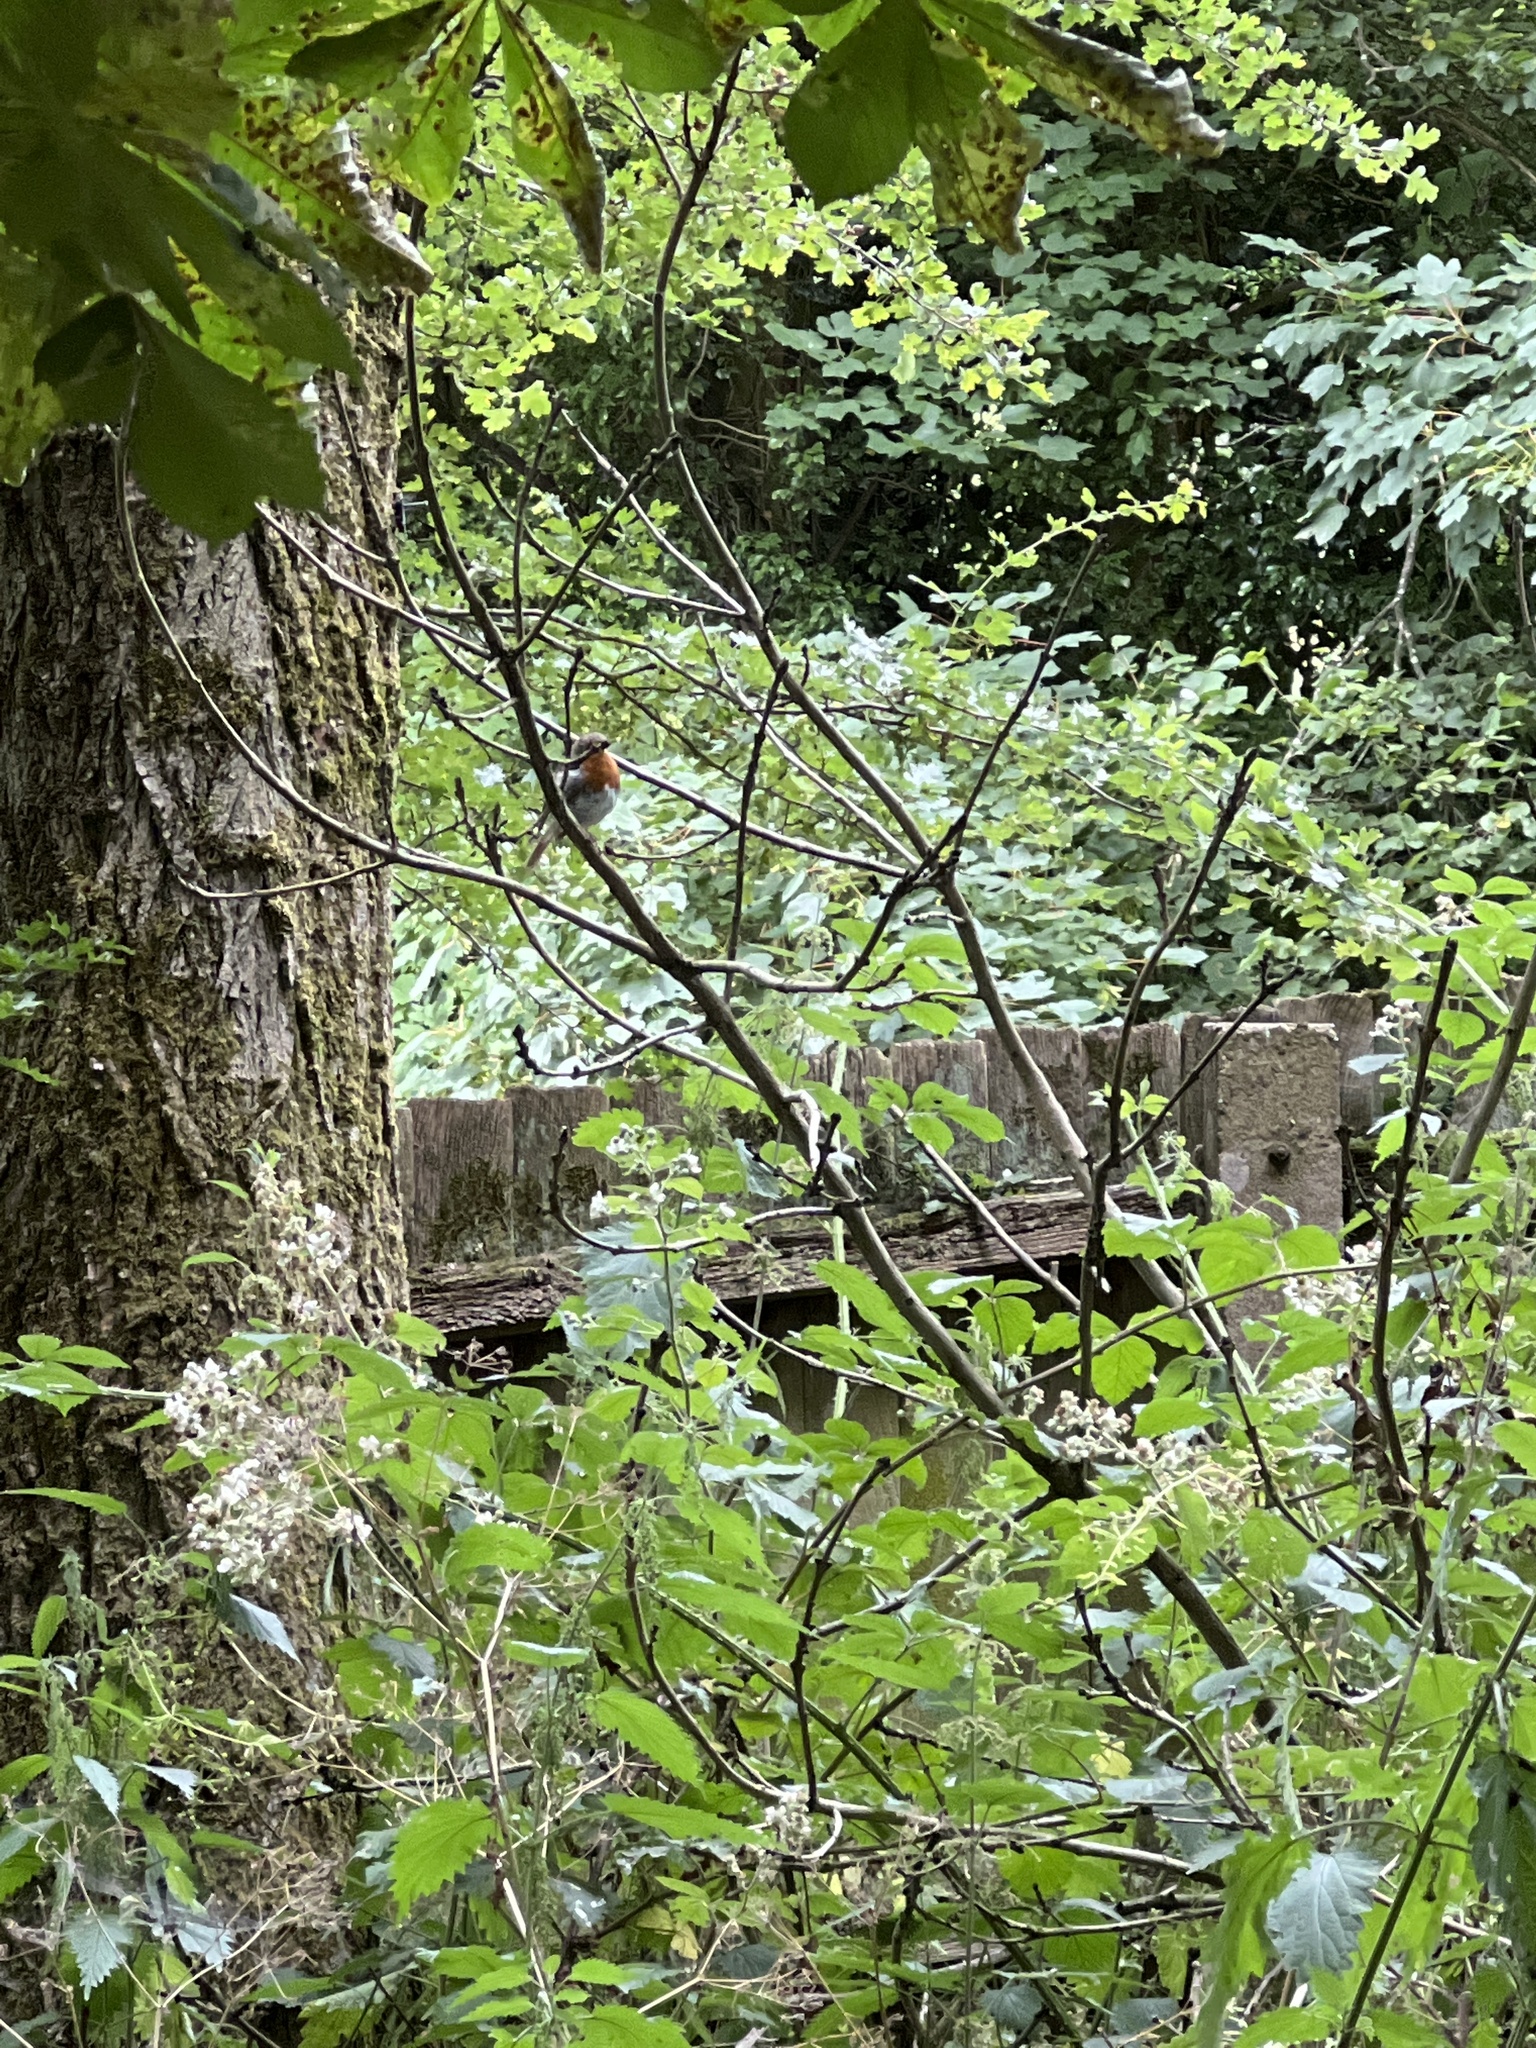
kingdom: Animalia
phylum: Chordata
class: Aves
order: Passeriformes
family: Muscicapidae
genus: Erithacus
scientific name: Erithacus rubecula
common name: European robin
